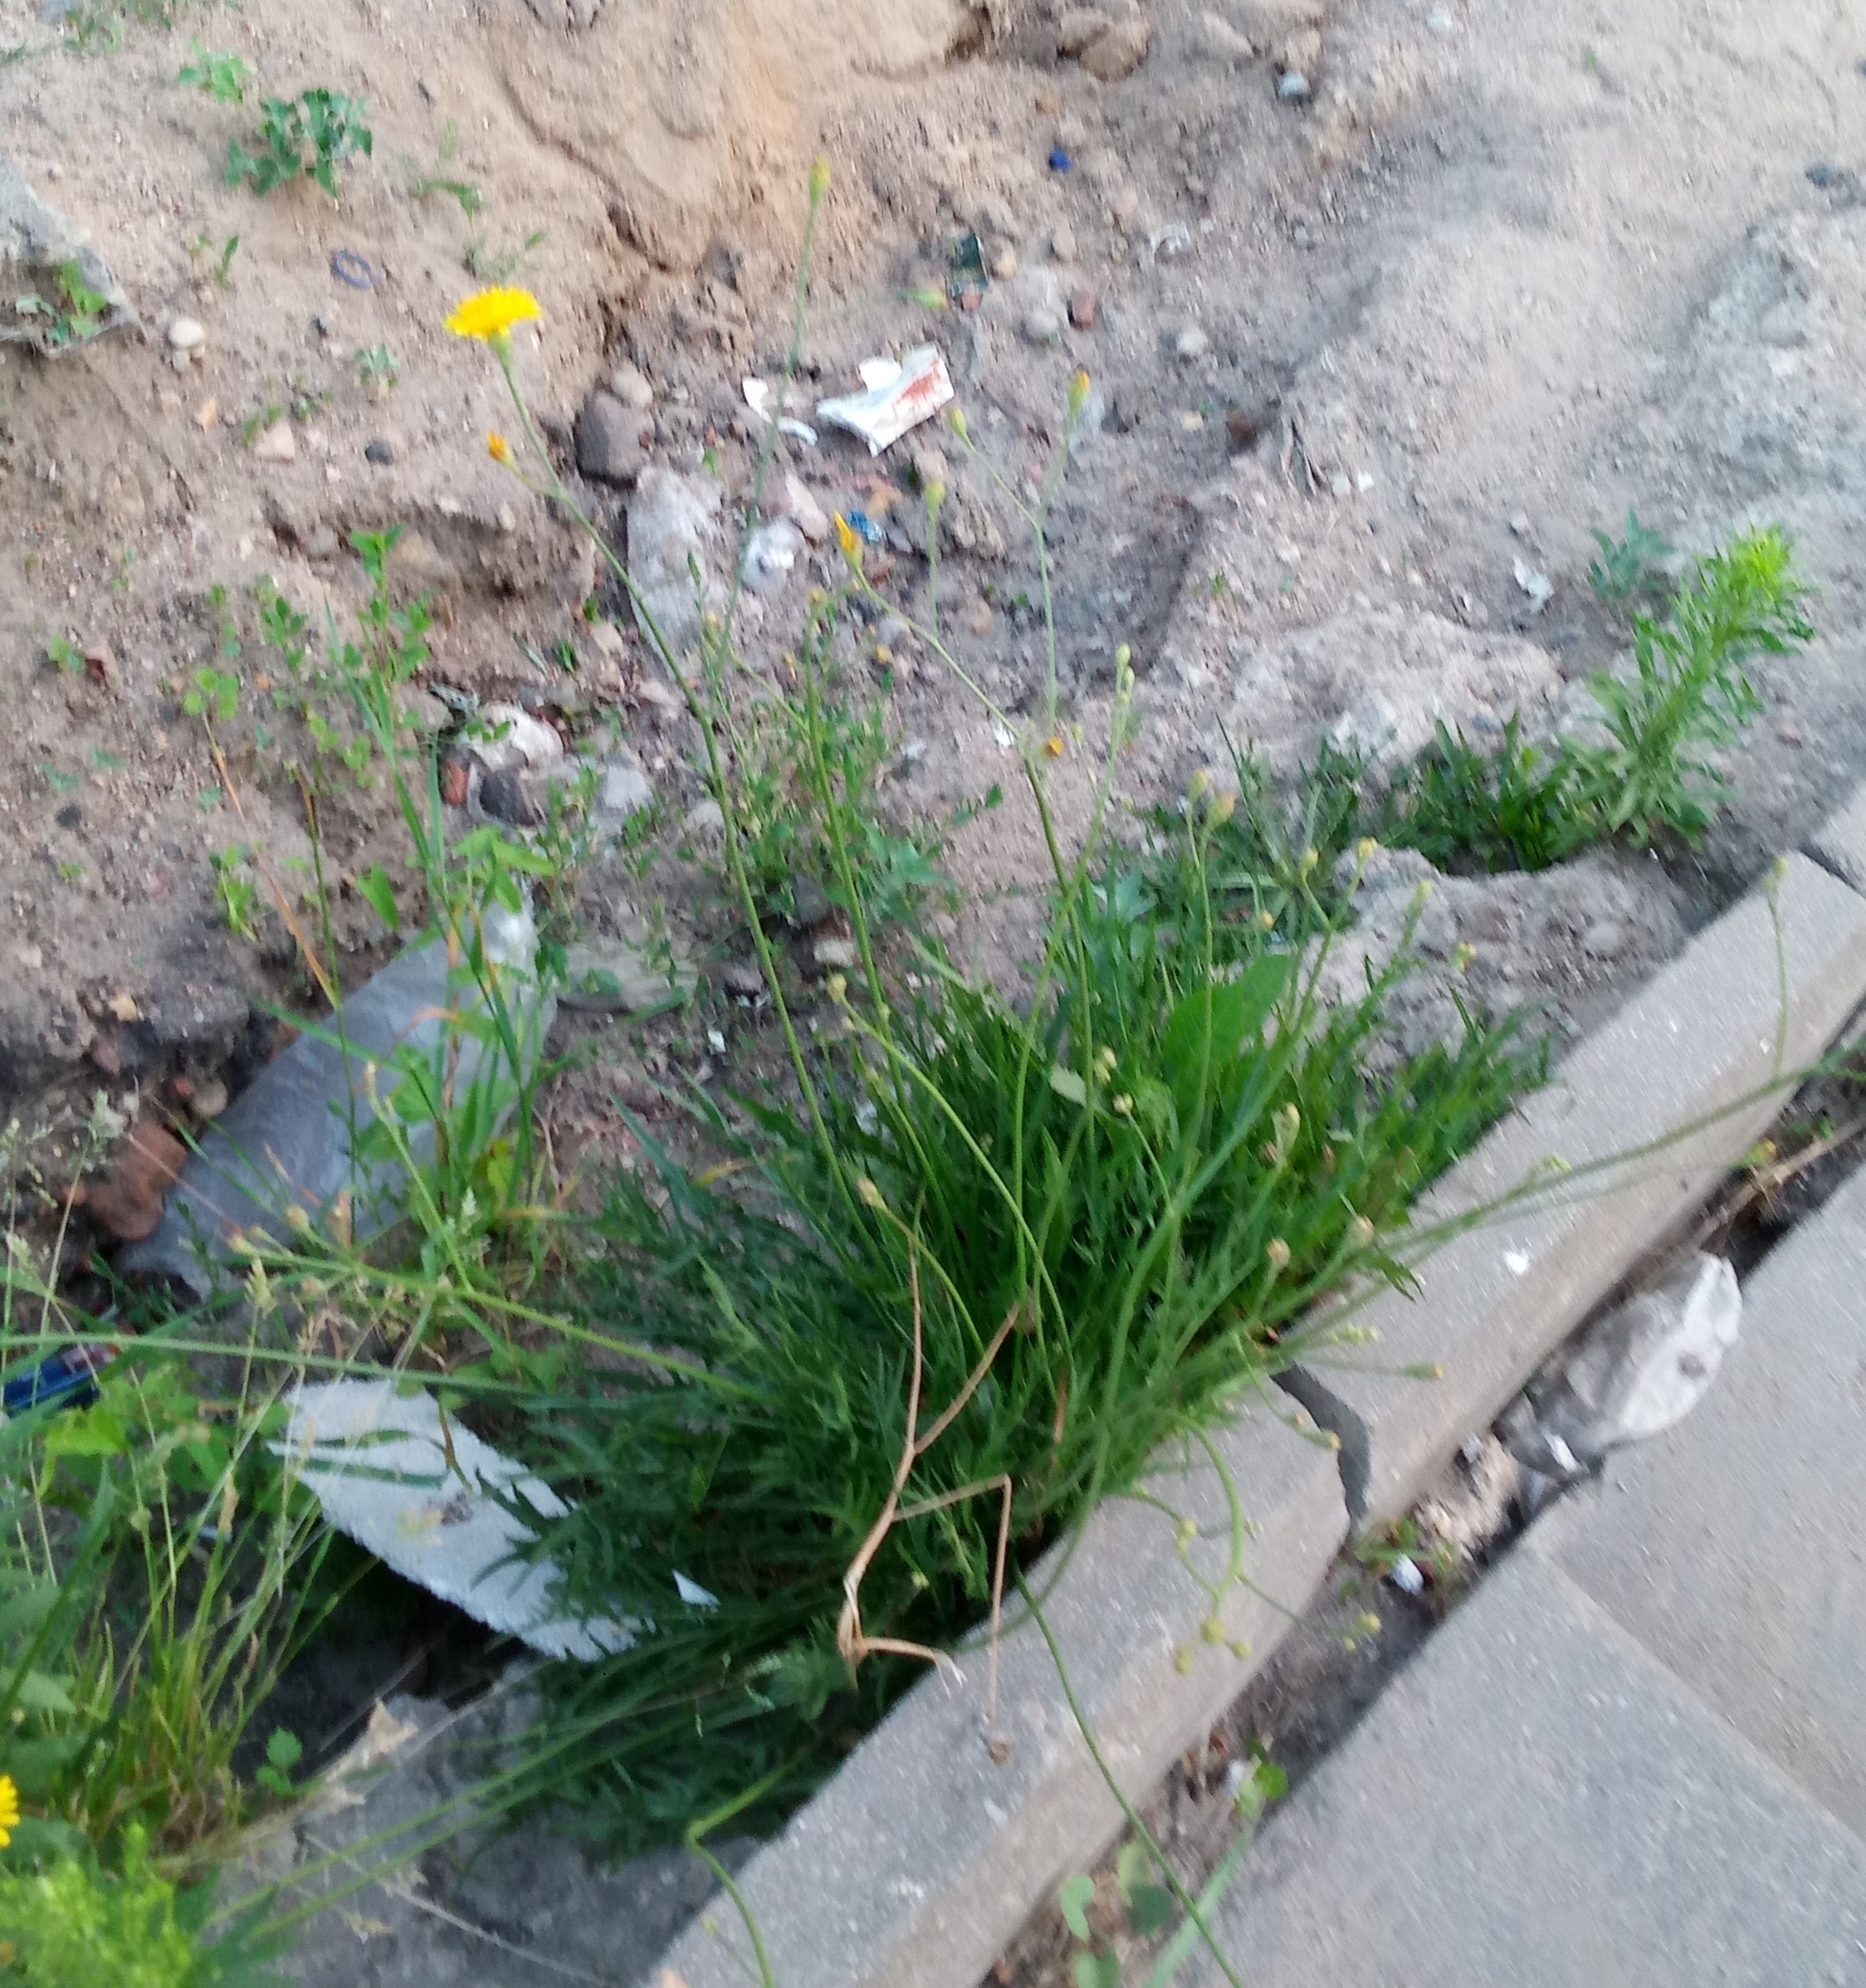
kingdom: Plantae
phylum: Tracheophyta
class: Magnoliopsida
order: Asterales
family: Asteraceae
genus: Scorzoneroides
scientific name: Scorzoneroides autumnalis
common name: Autumn hawkbit
